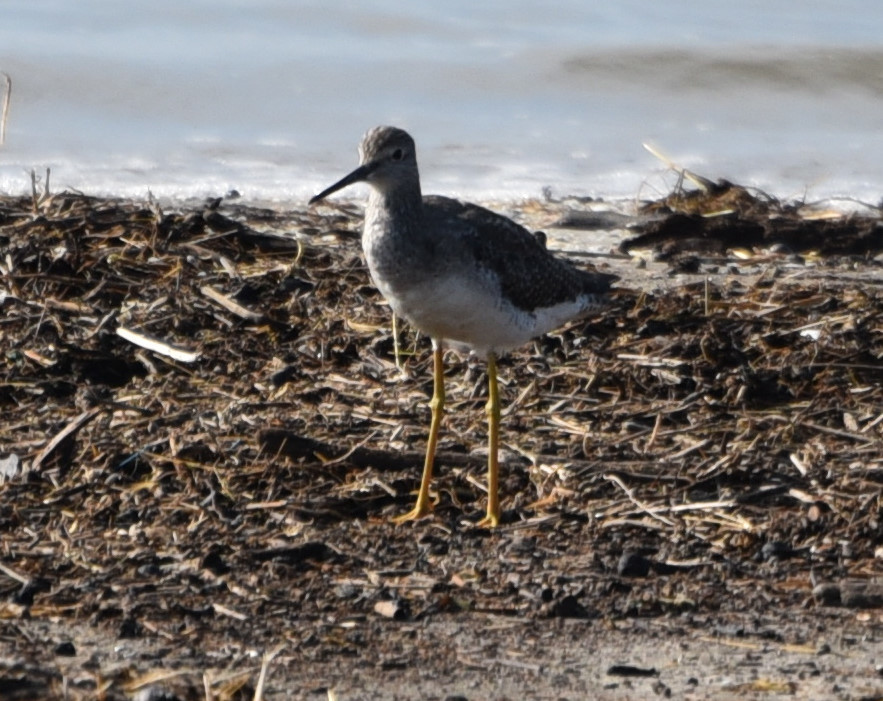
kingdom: Animalia
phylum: Chordata
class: Aves
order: Charadriiformes
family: Scolopacidae
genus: Tringa
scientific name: Tringa melanoleuca
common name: Greater yellowlegs
